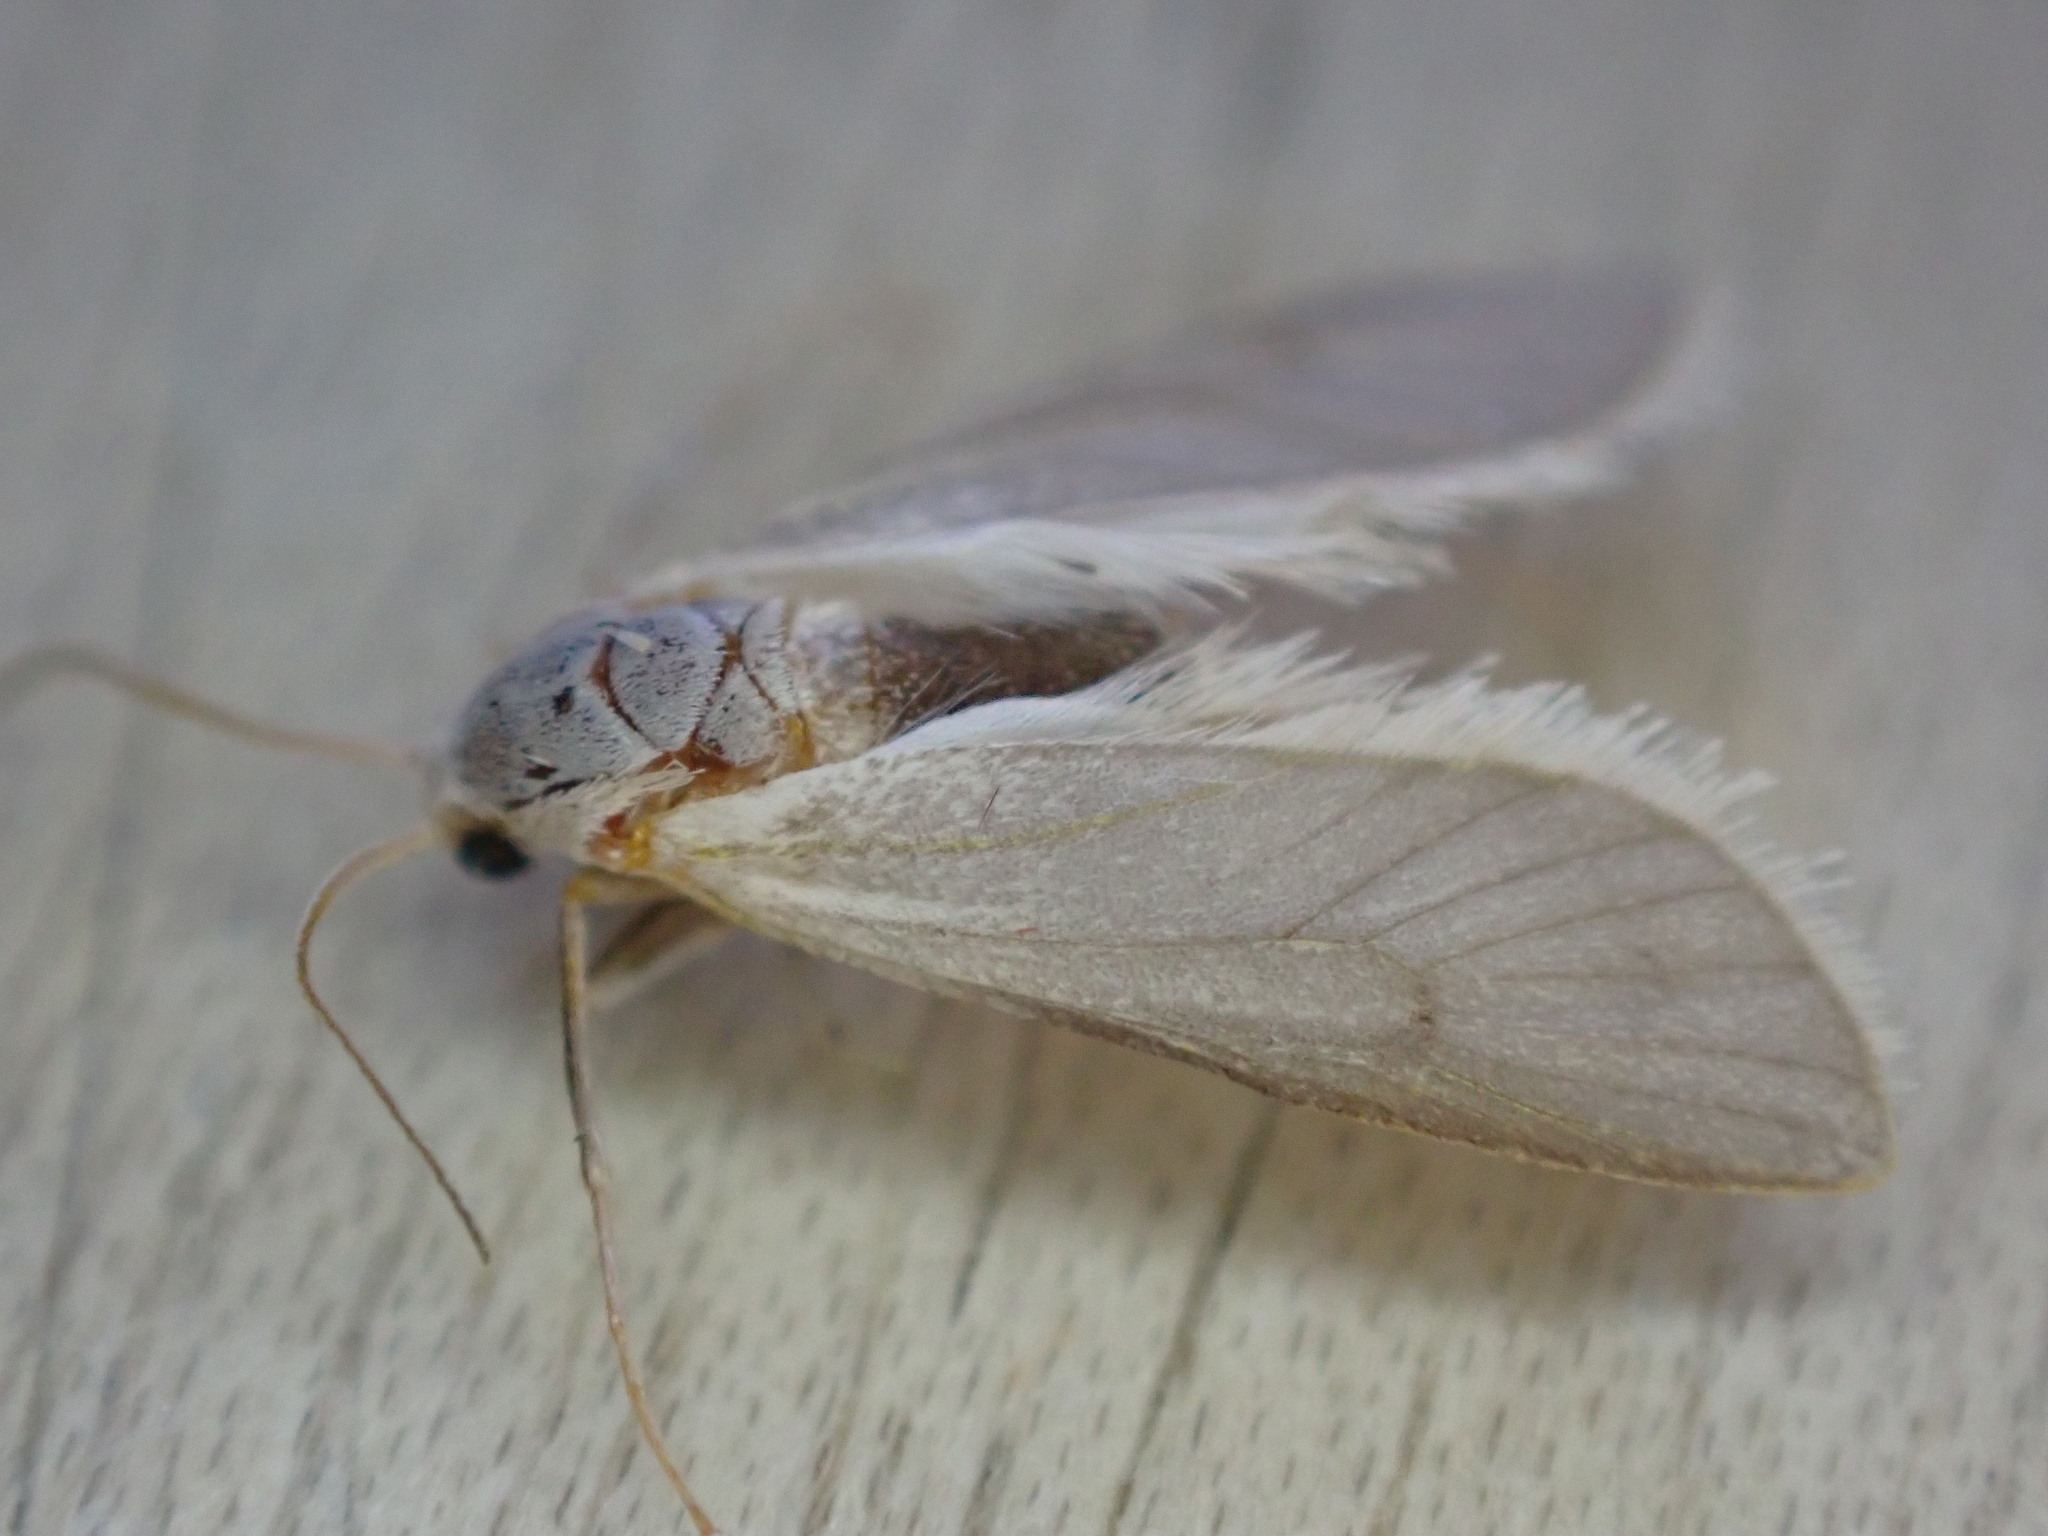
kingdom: Animalia
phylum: Arthropoda
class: Insecta
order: Lepidoptera
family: Crambidae
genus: Acentria
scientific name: Acentria ephemerella
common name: European water moth
